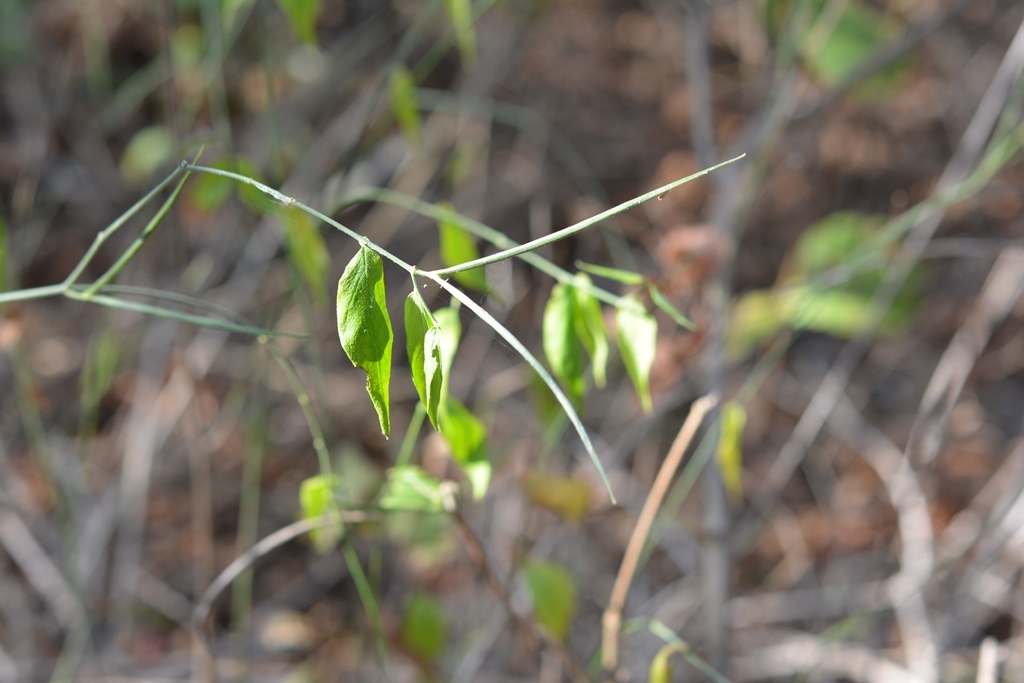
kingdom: Plantae
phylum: Tracheophyta
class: Magnoliopsida
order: Gentianales
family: Apocynaceae
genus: Haplophyton
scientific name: Haplophyton cimicidum
